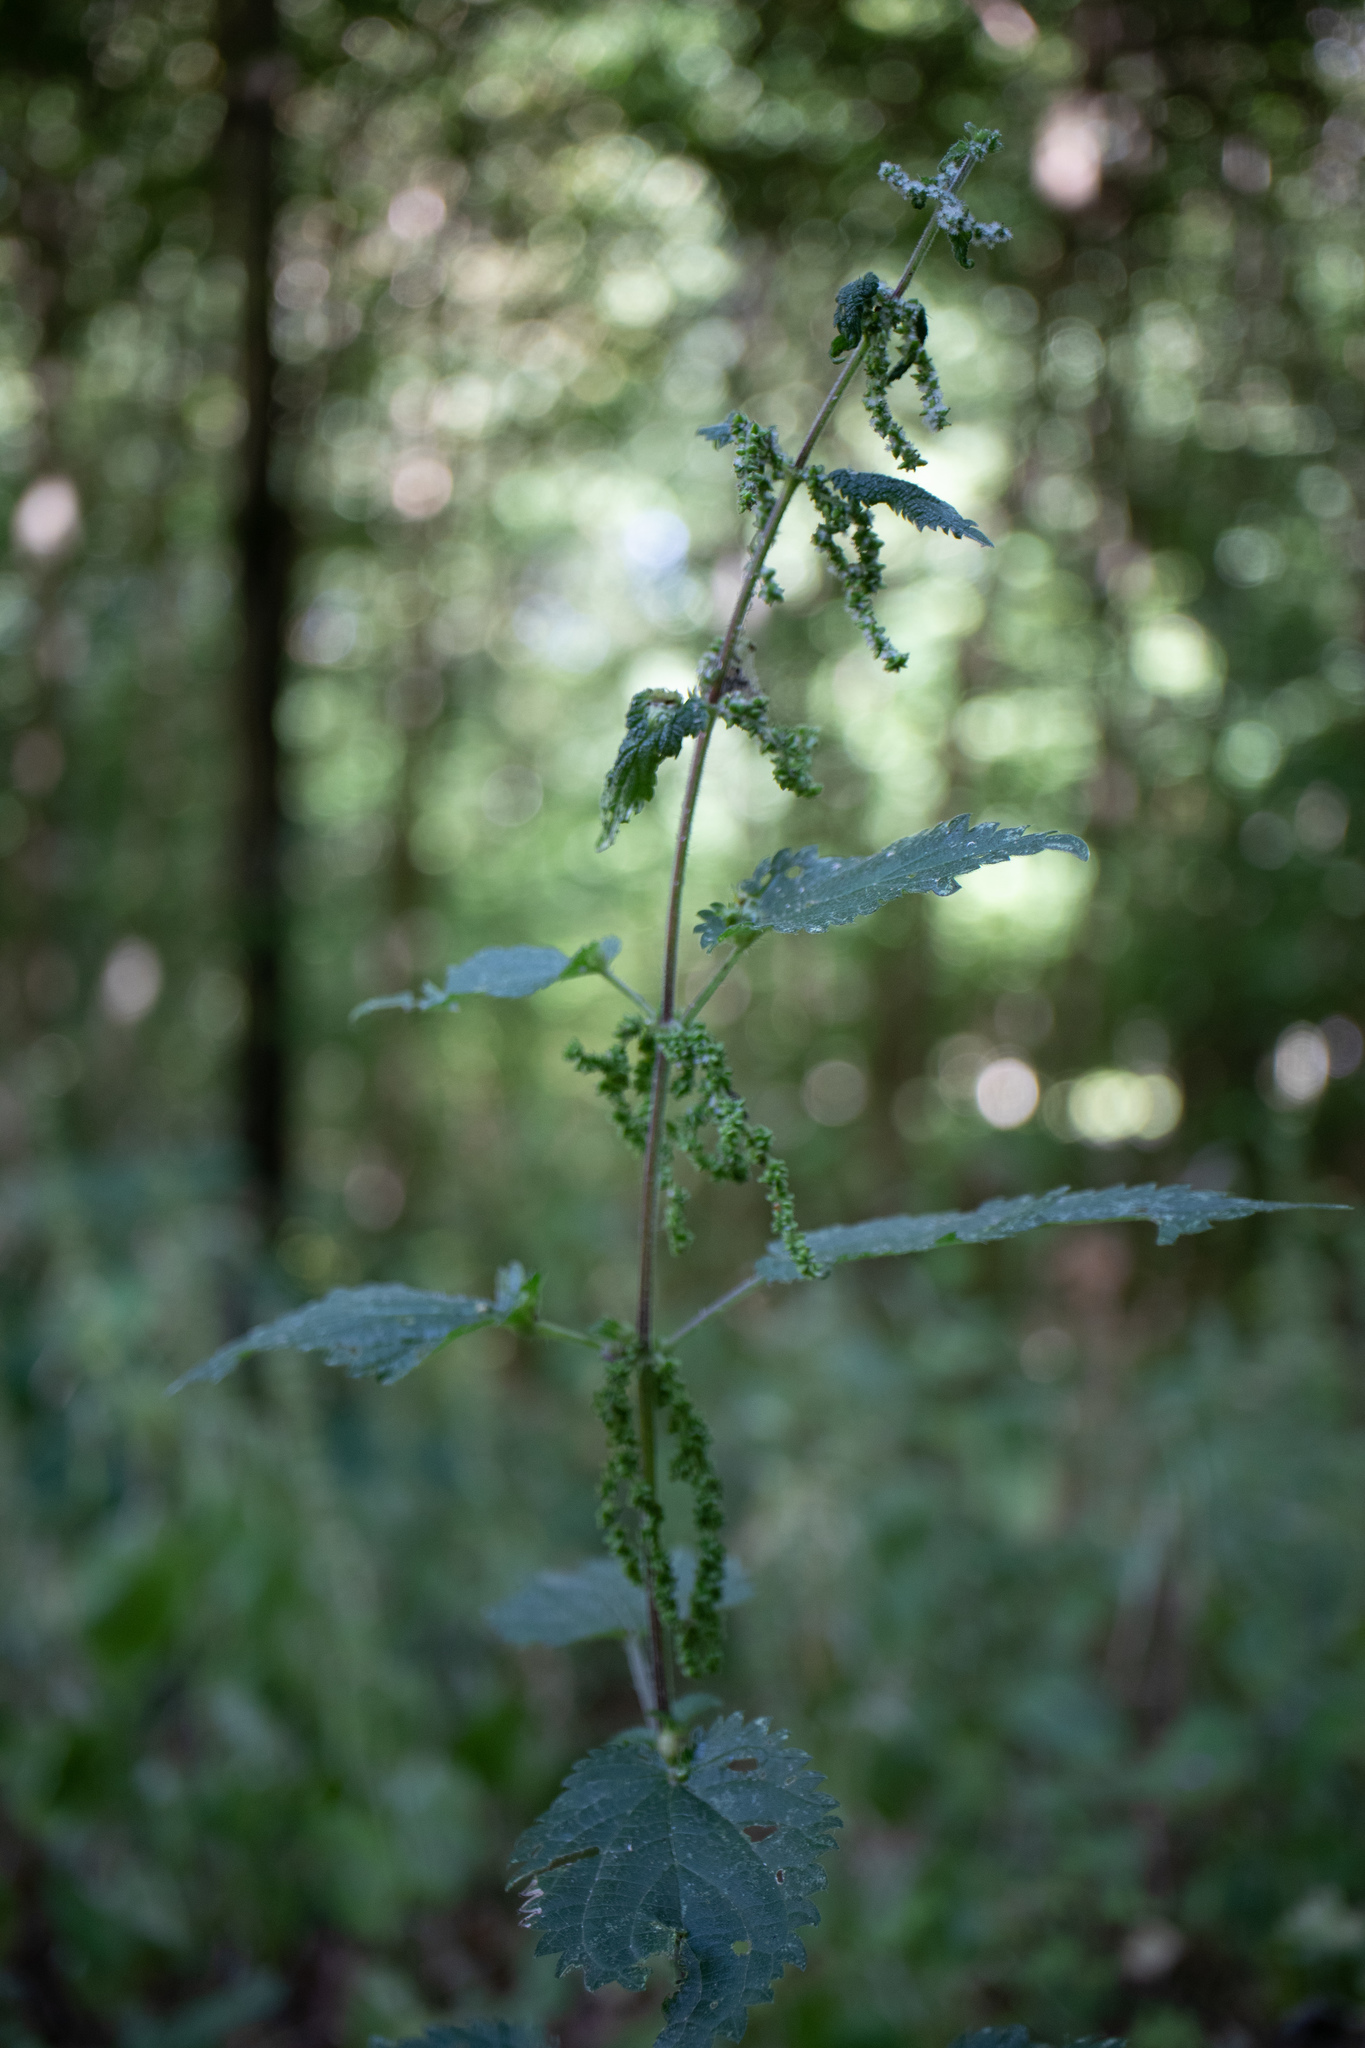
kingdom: Plantae
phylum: Tracheophyta
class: Magnoliopsida
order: Rosales
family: Urticaceae
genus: Urtica
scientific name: Urtica dioica
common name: Common nettle
